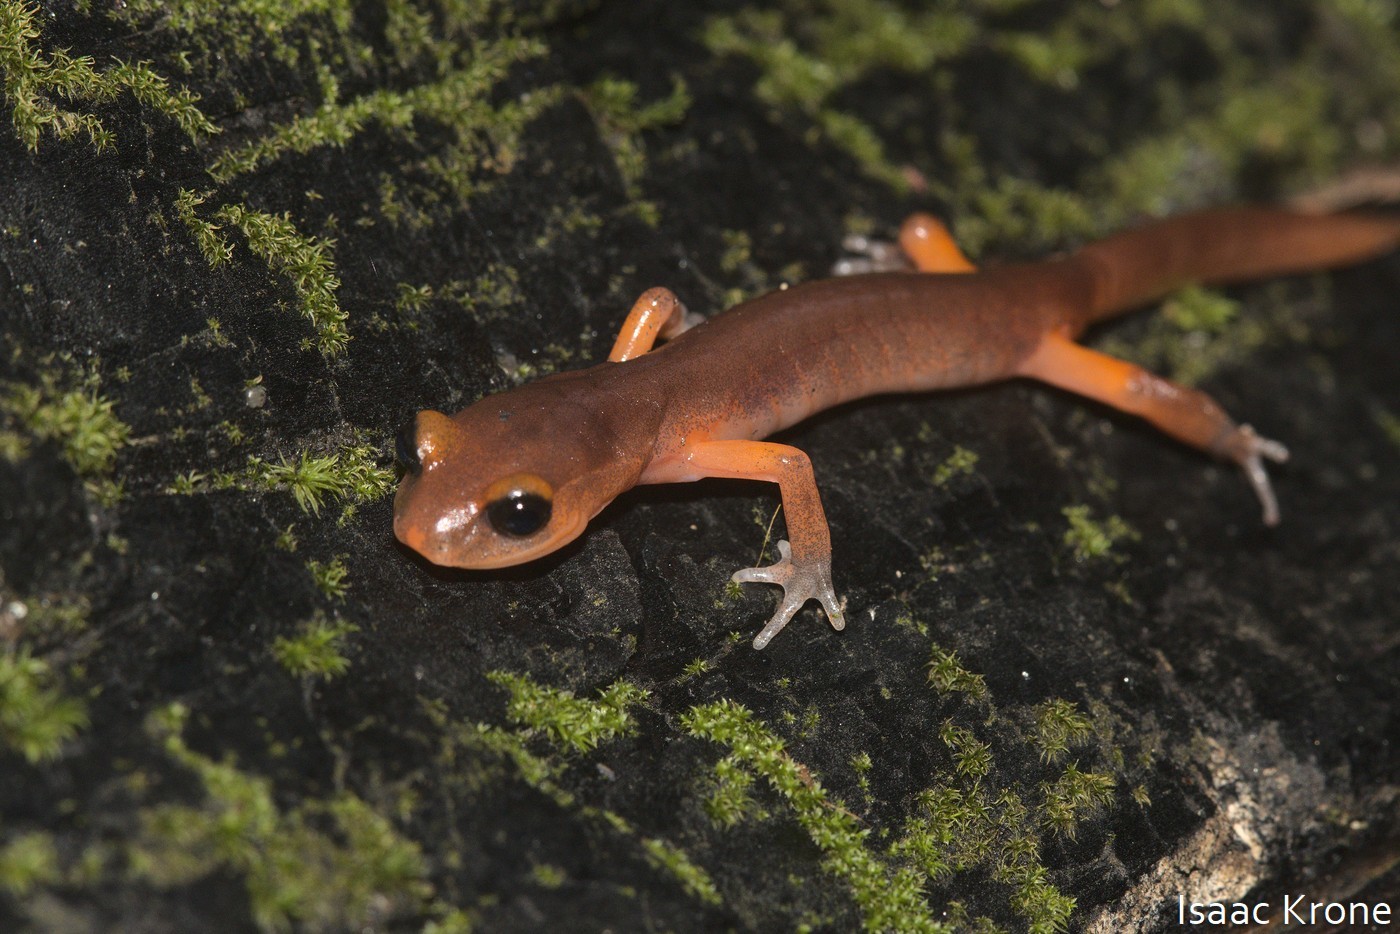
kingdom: Animalia
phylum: Chordata
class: Amphibia
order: Caudata
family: Plethodontidae
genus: Ensatina
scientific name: Ensatina eschscholtzii
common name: Ensatina
